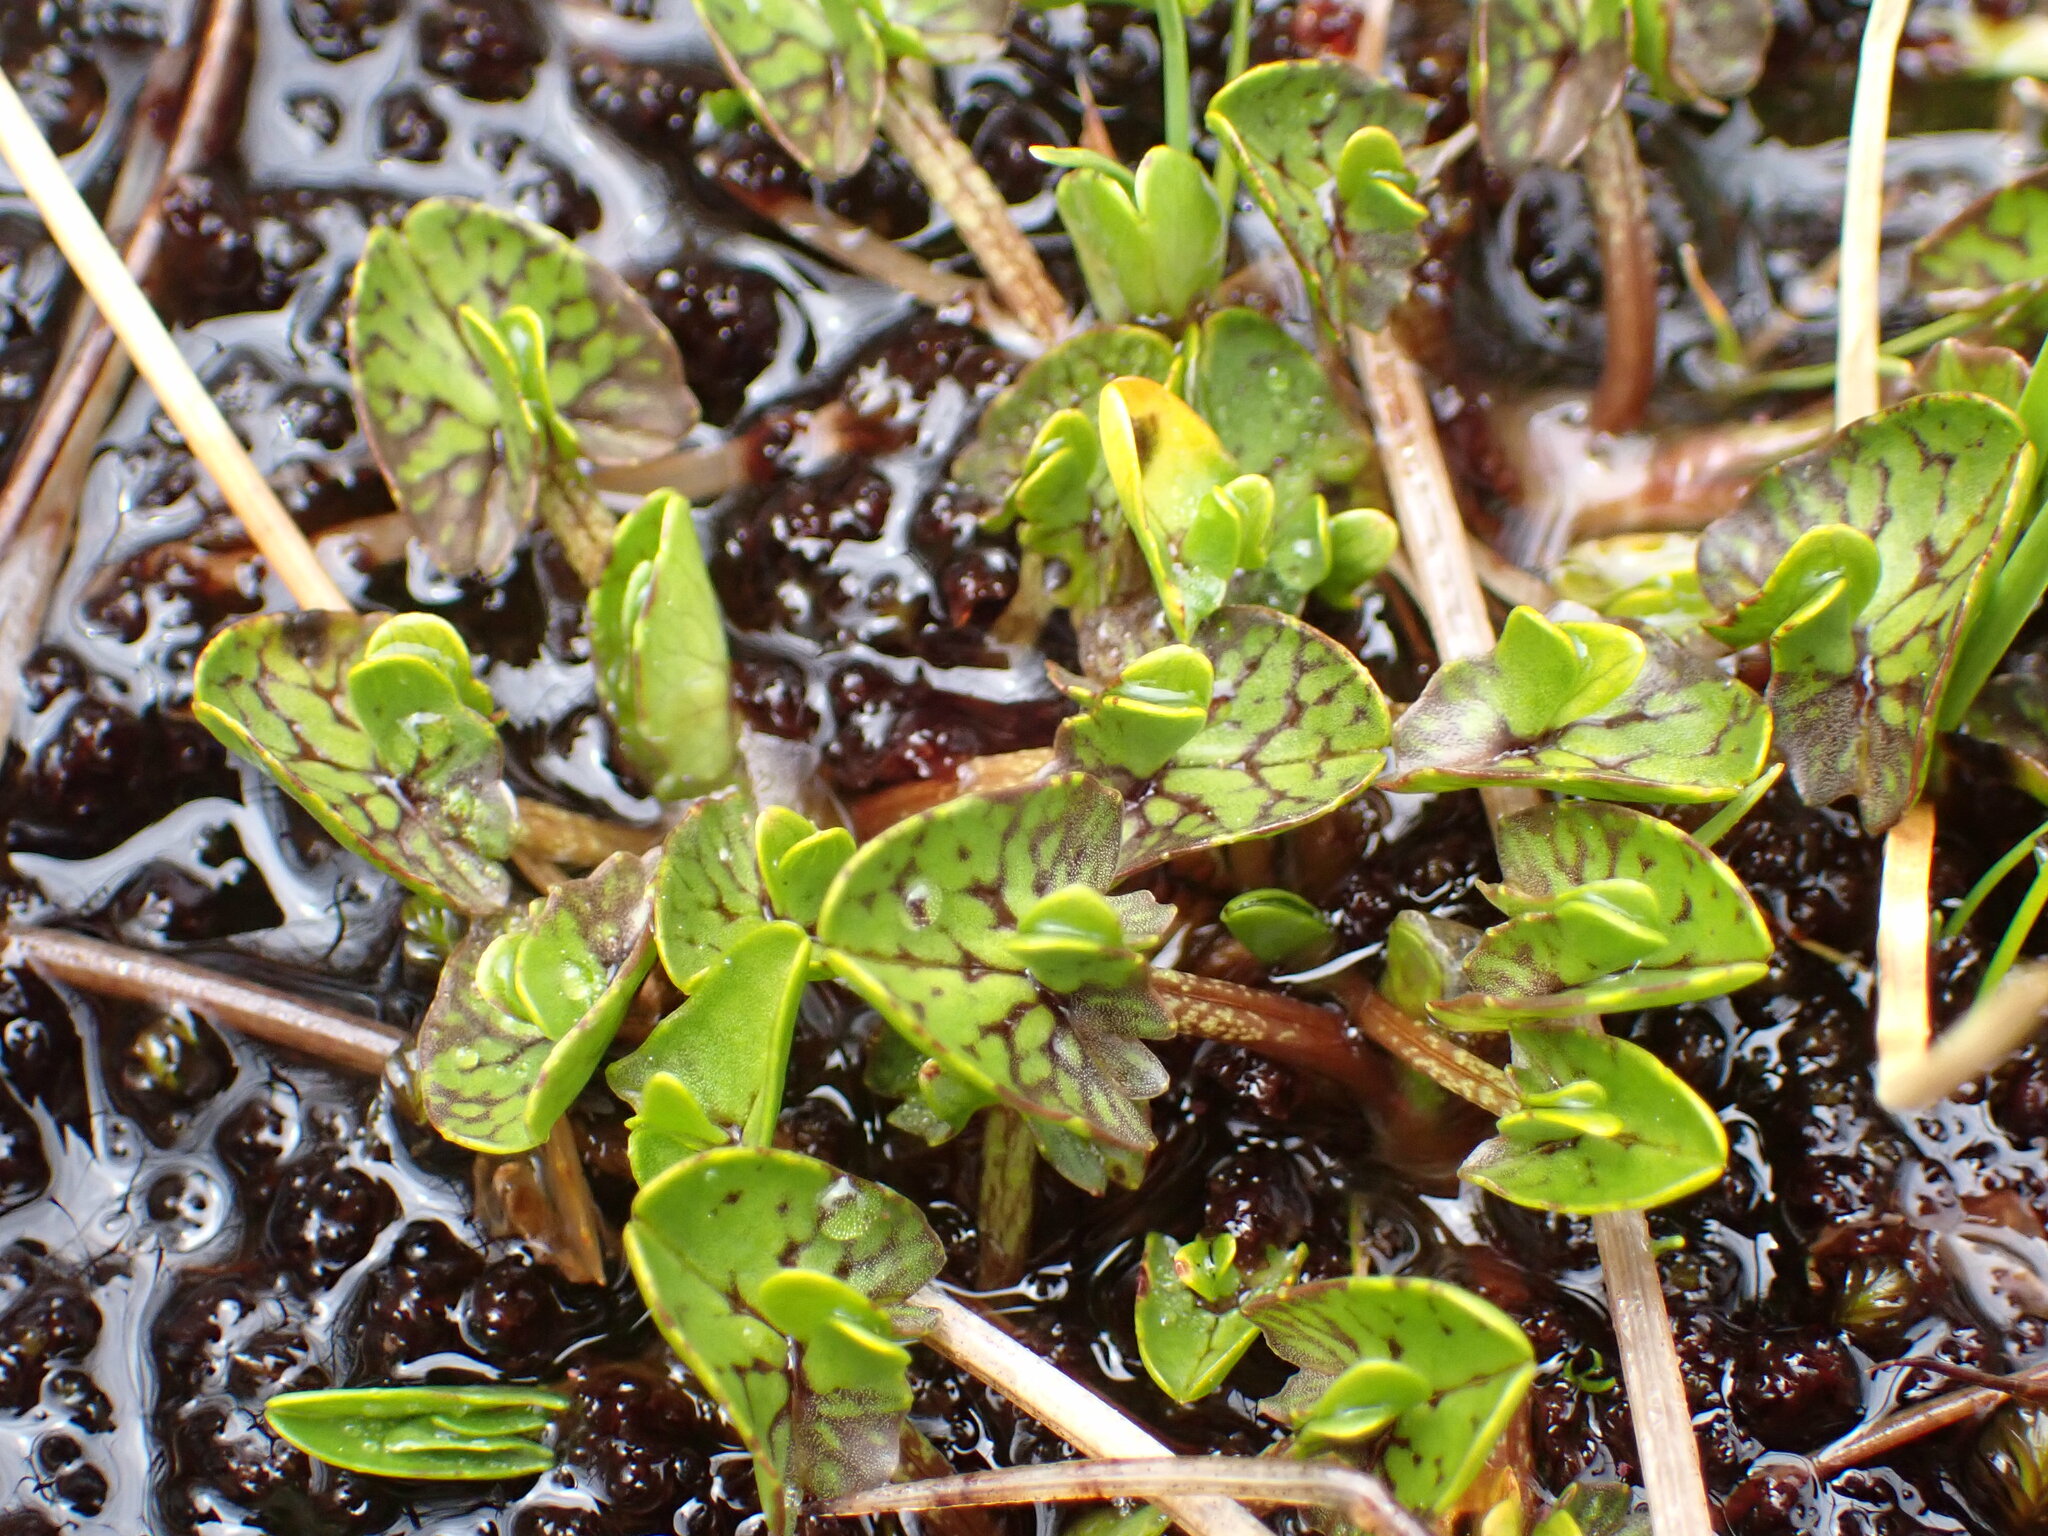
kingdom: Plantae
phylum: Tracheophyta
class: Magnoliopsida
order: Ranunculales
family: Ranunculaceae
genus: Caltha
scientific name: Caltha obtusa
